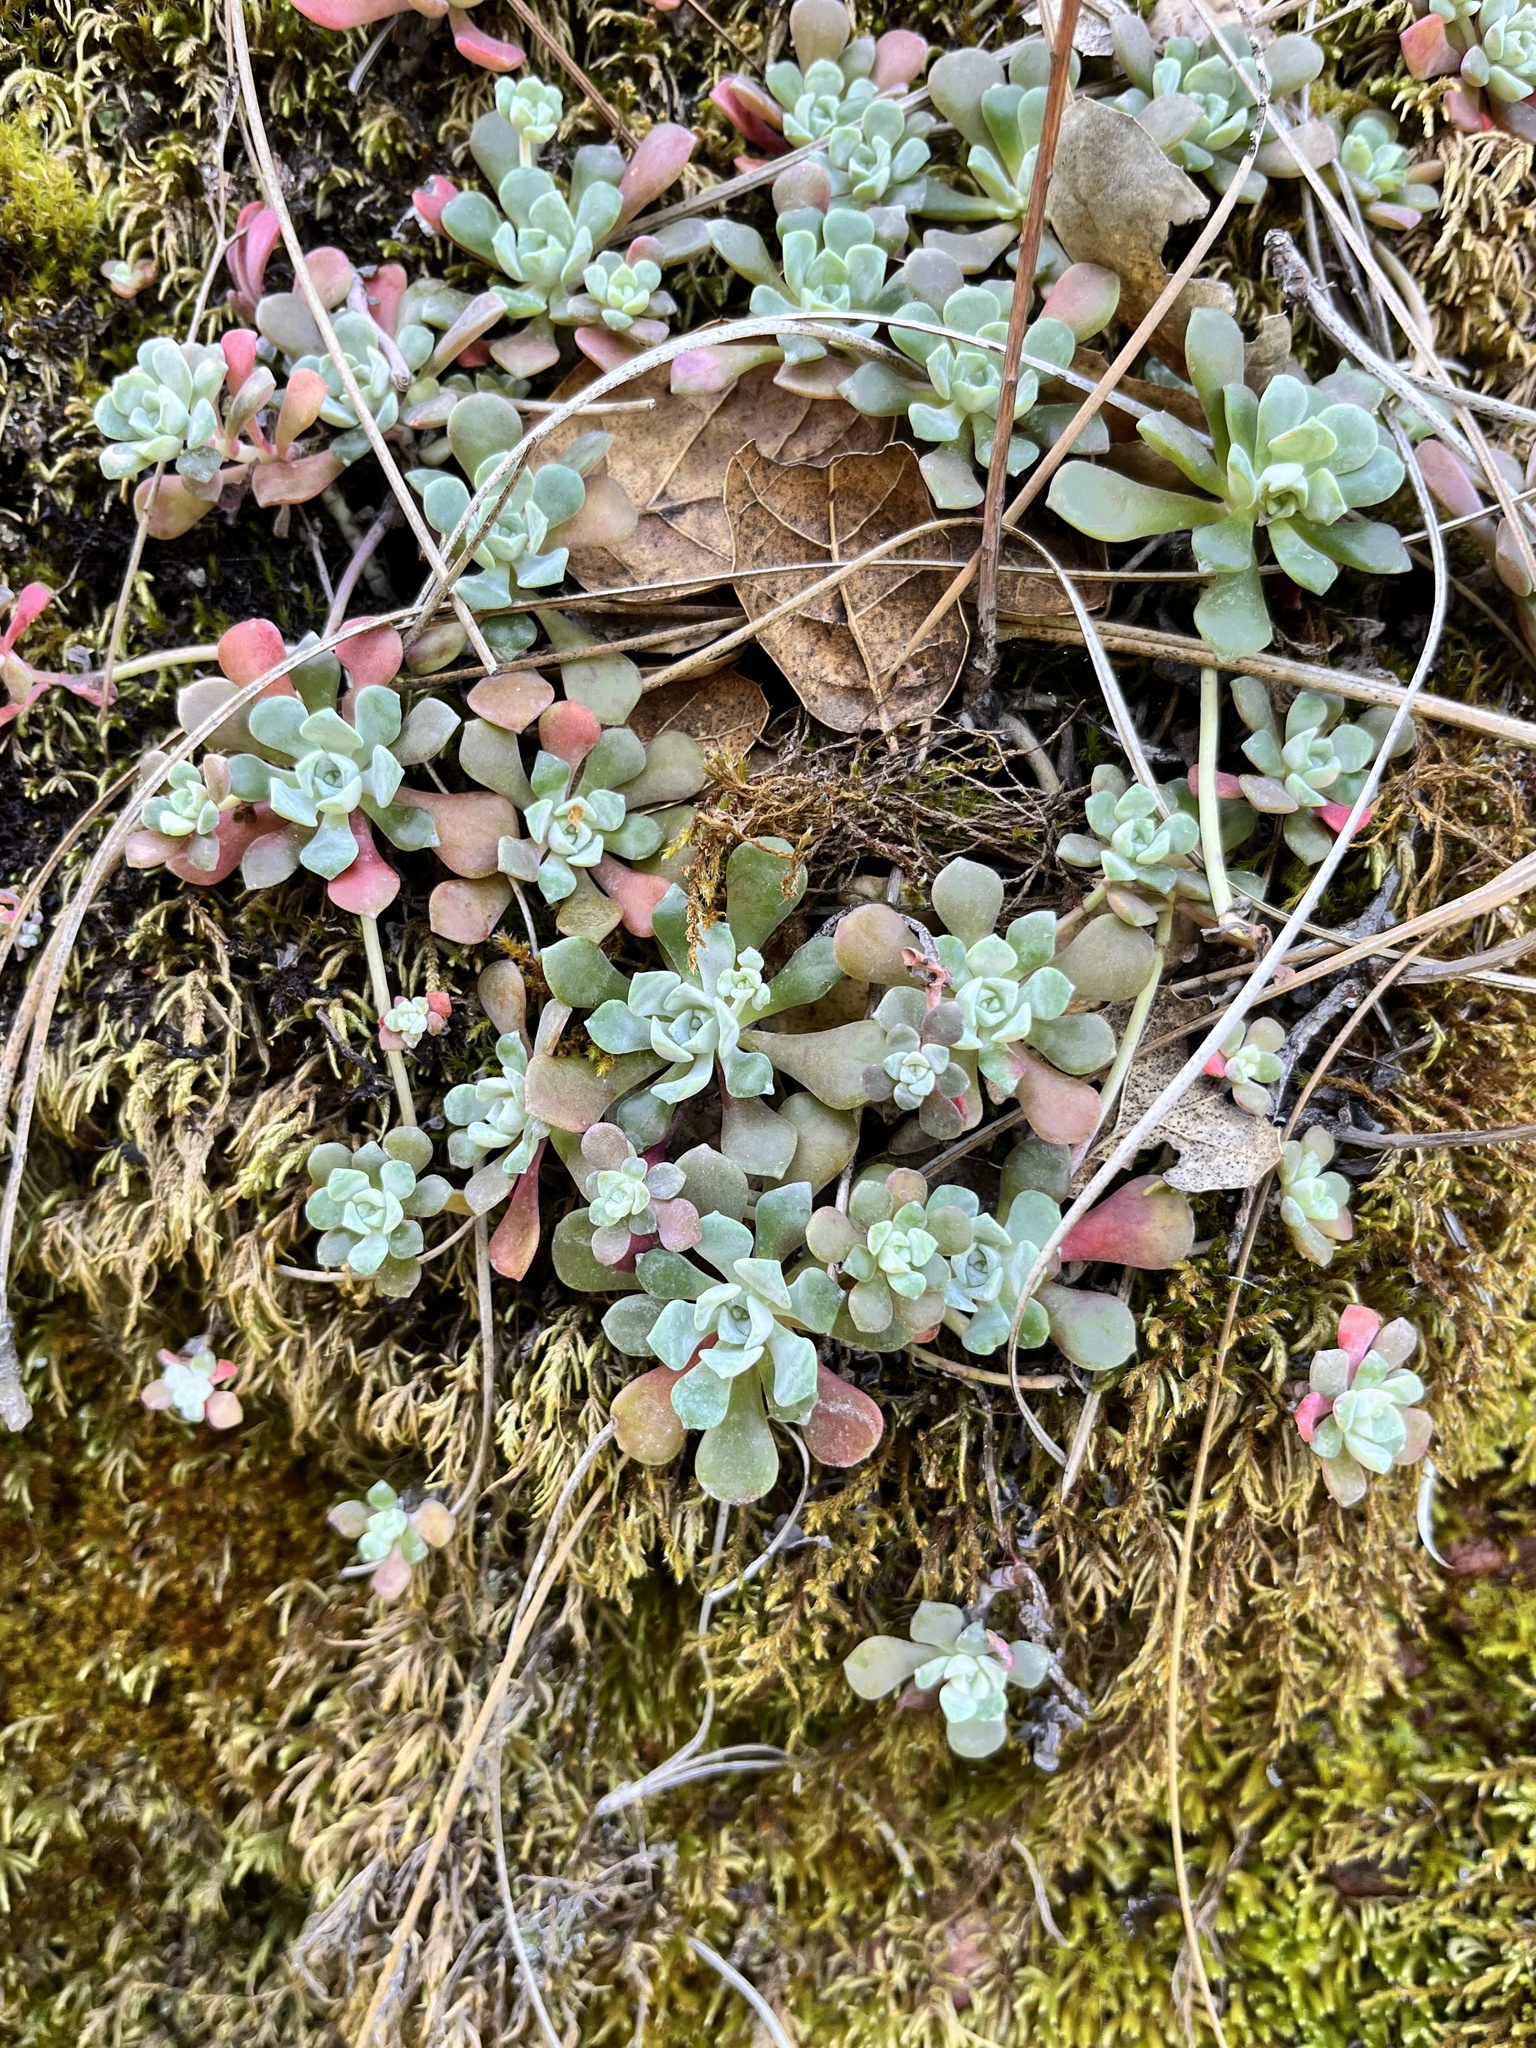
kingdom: Plantae
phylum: Tracheophyta
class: Magnoliopsida
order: Saxifragales
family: Crassulaceae
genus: Sedum
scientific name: Sedum spathulifolium
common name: Colorado stonecrop
